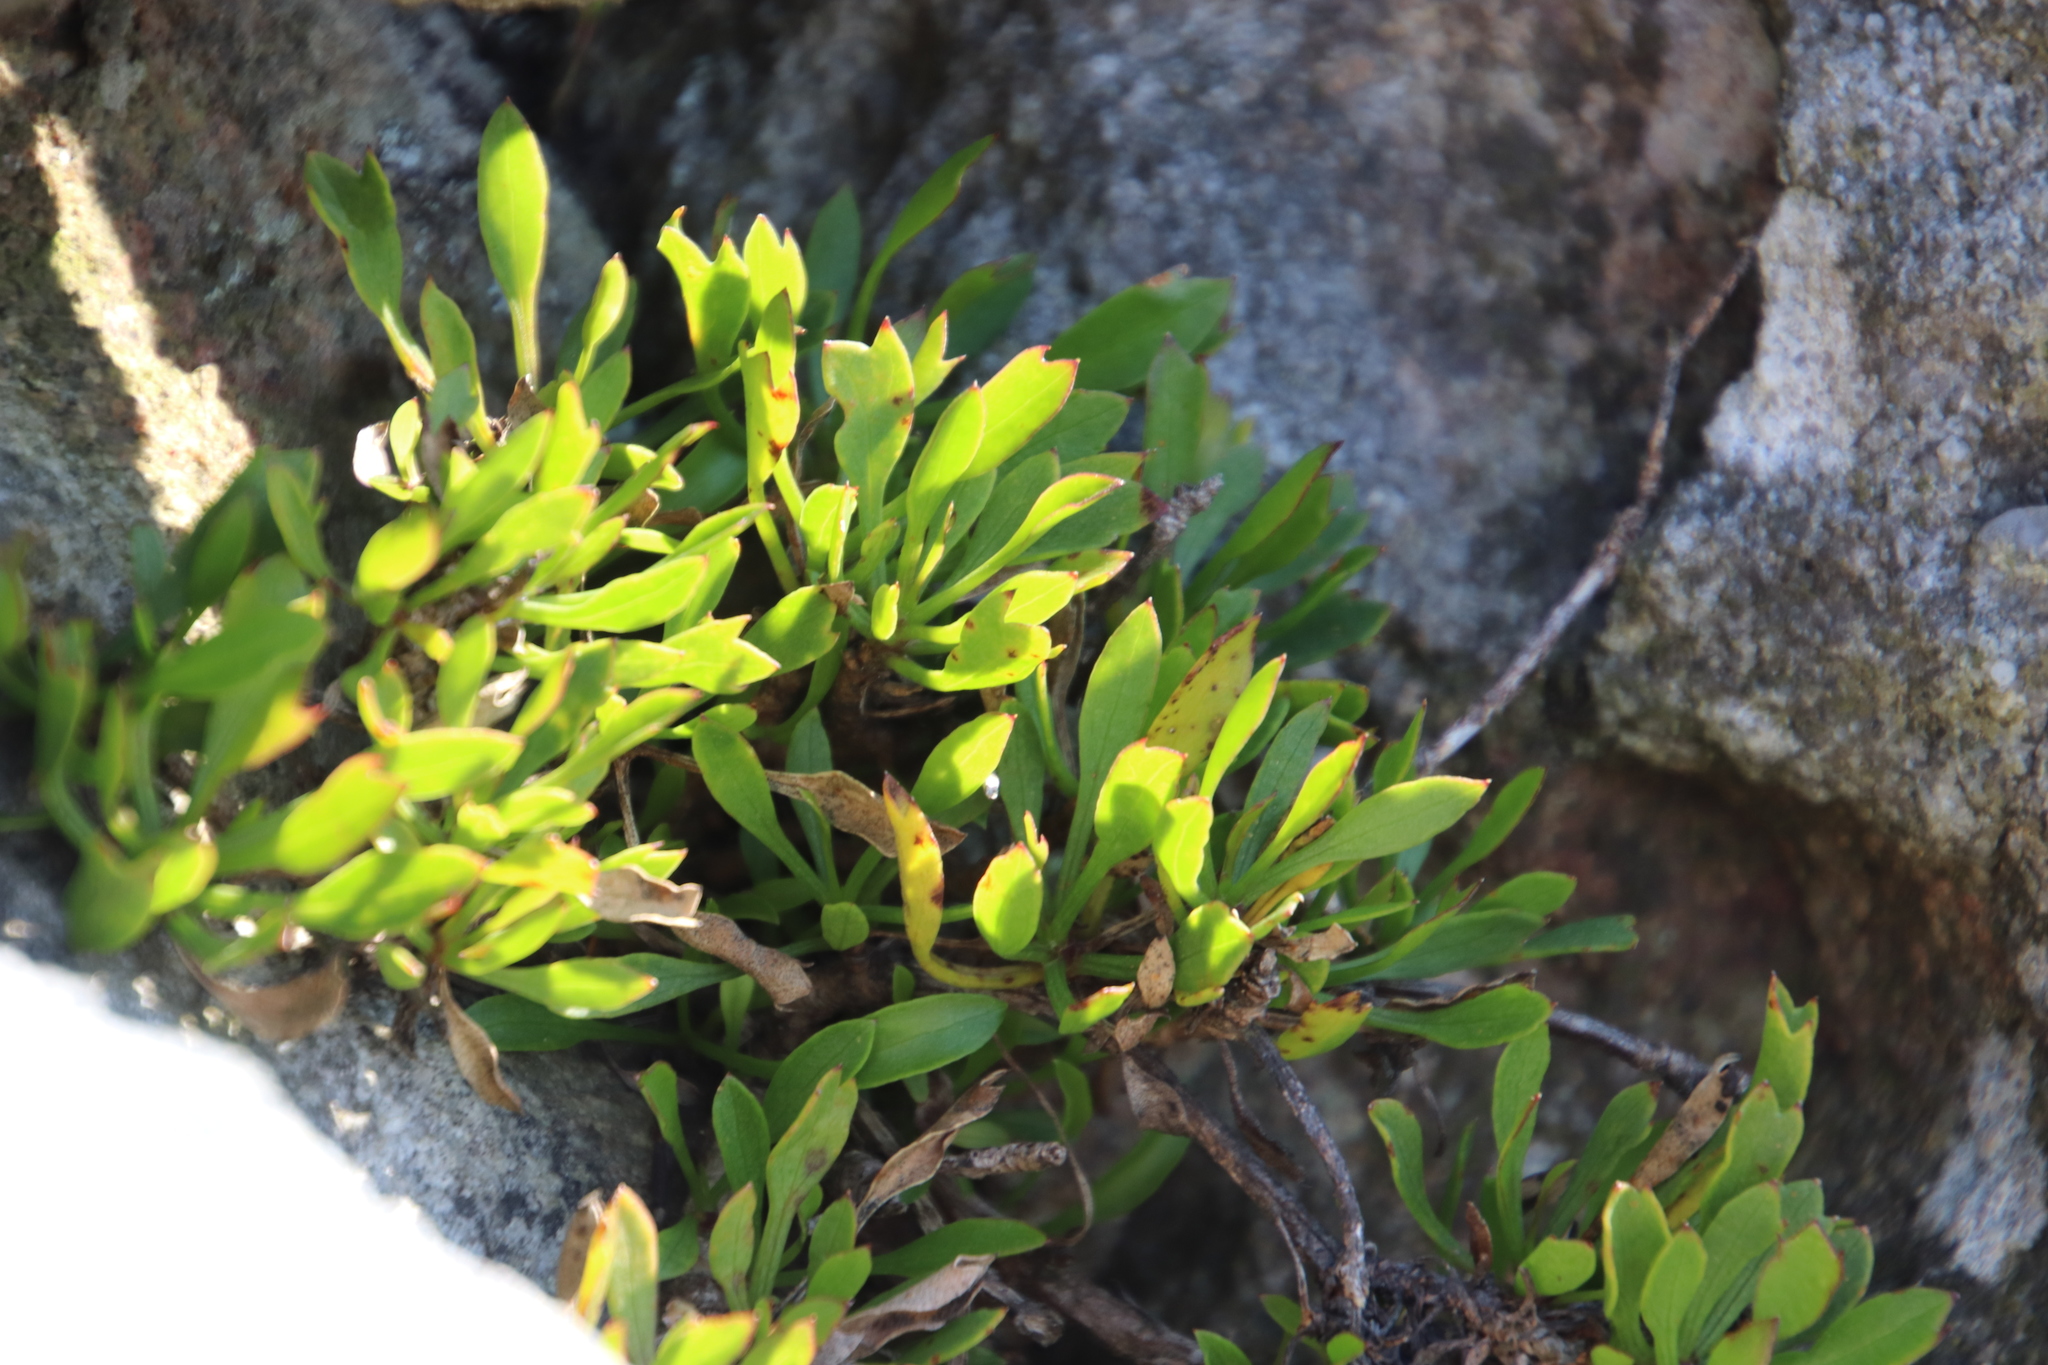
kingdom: Plantae
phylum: Tracheophyta
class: Magnoliopsida
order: Apiales
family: Apiaceae
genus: Centella
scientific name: Centella triloba
